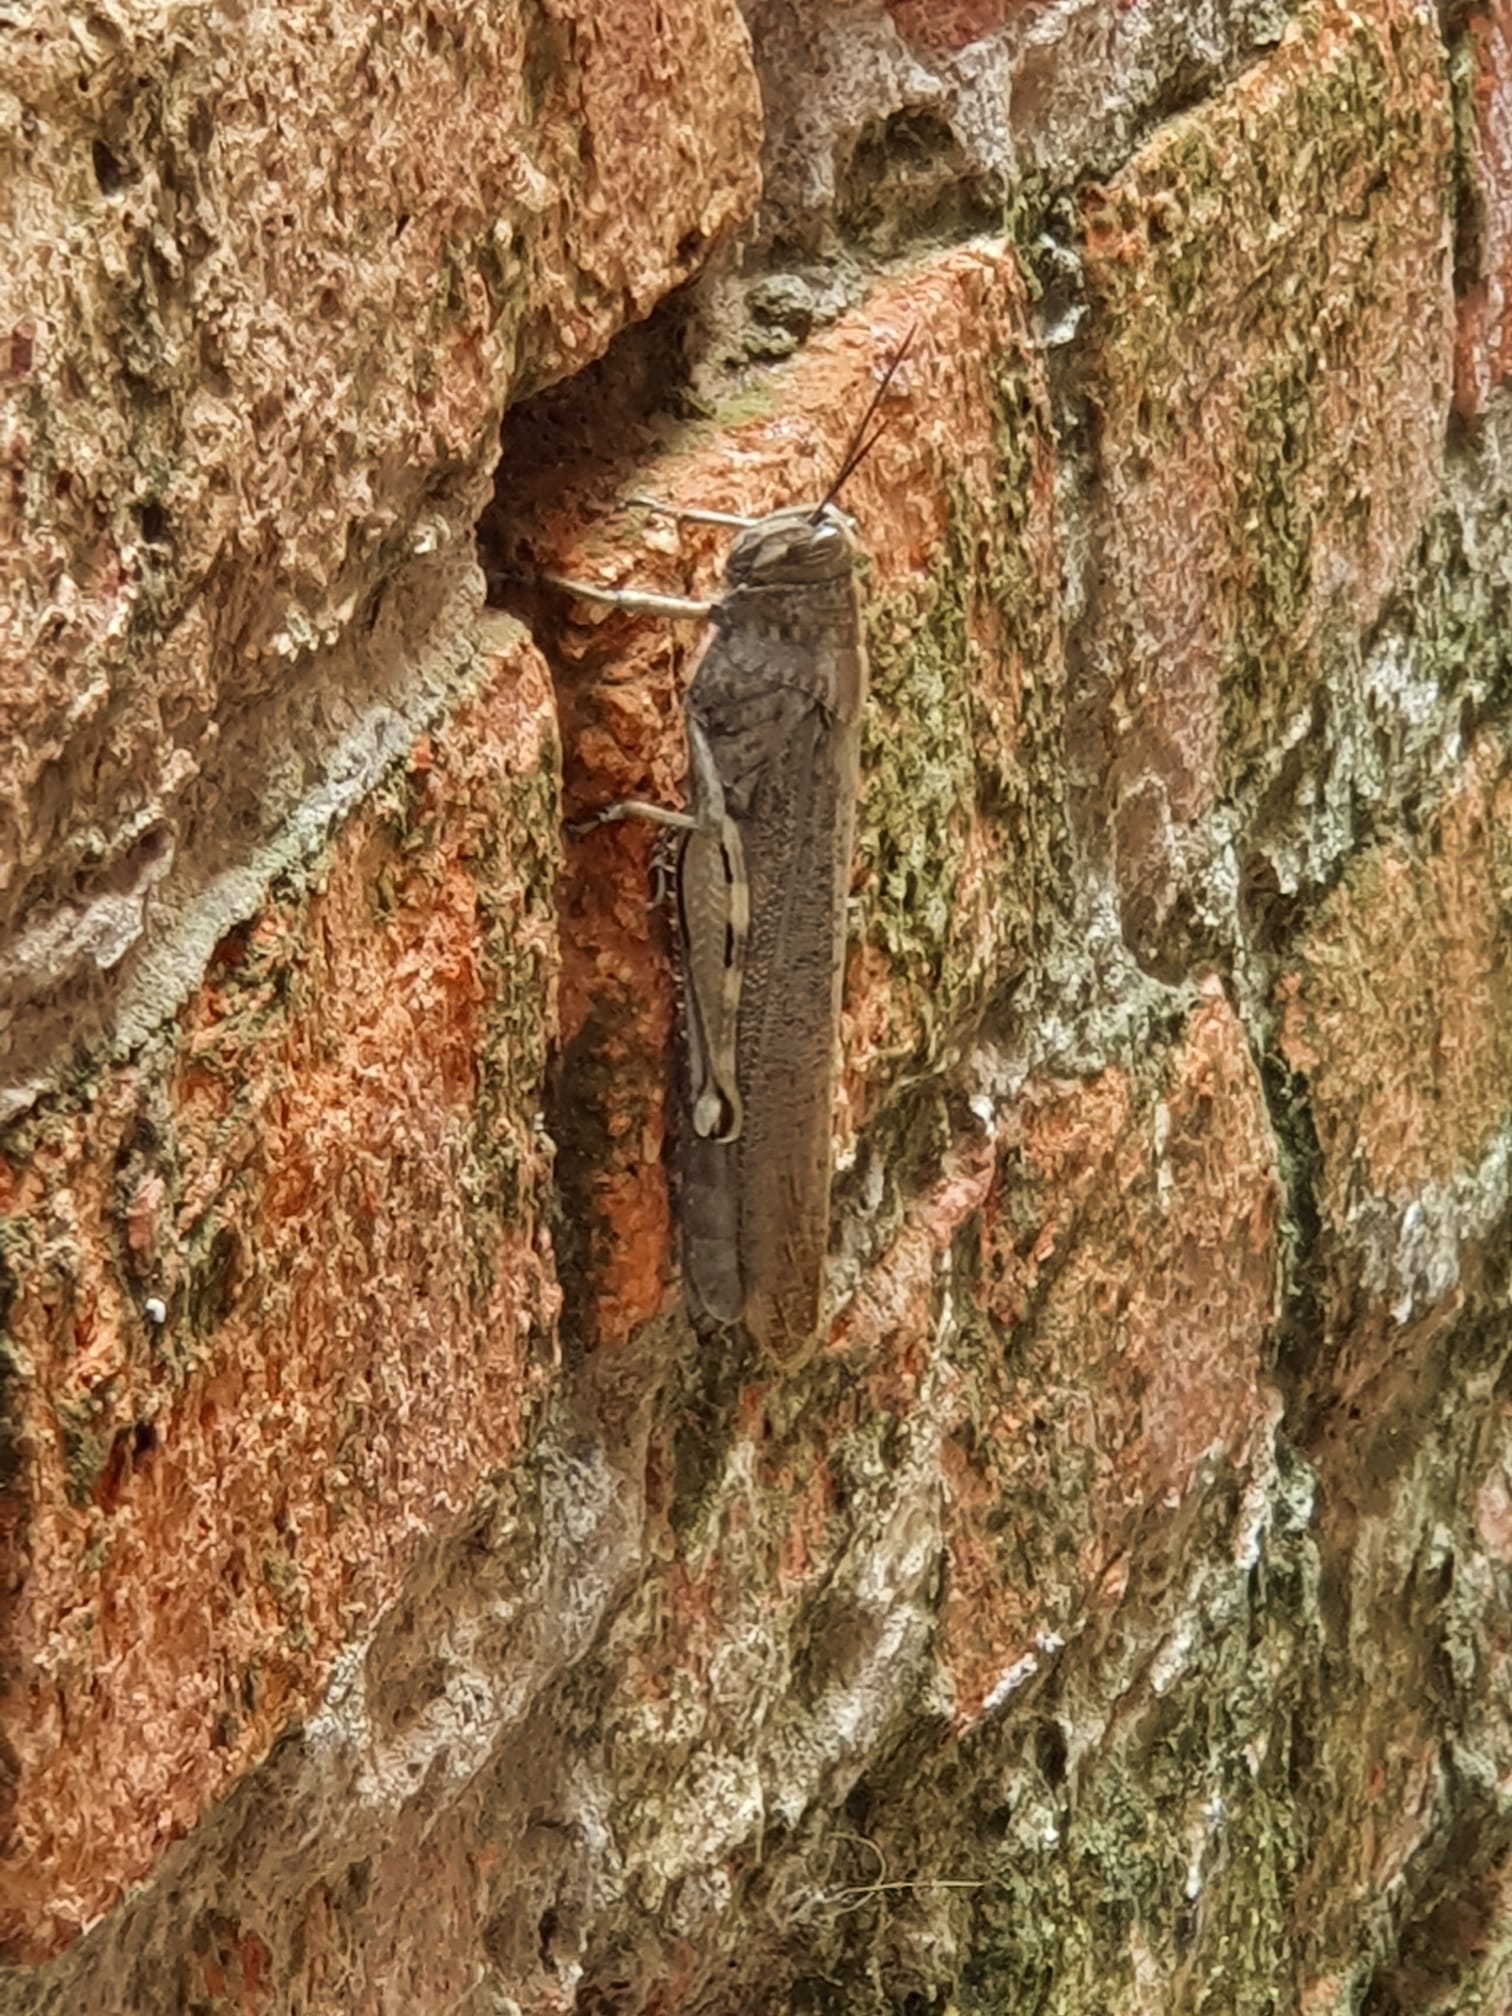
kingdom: Animalia
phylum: Arthropoda
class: Insecta
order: Orthoptera
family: Acrididae
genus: Anacridium
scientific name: Anacridium aegyptium
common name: Egyptian grasshopper
